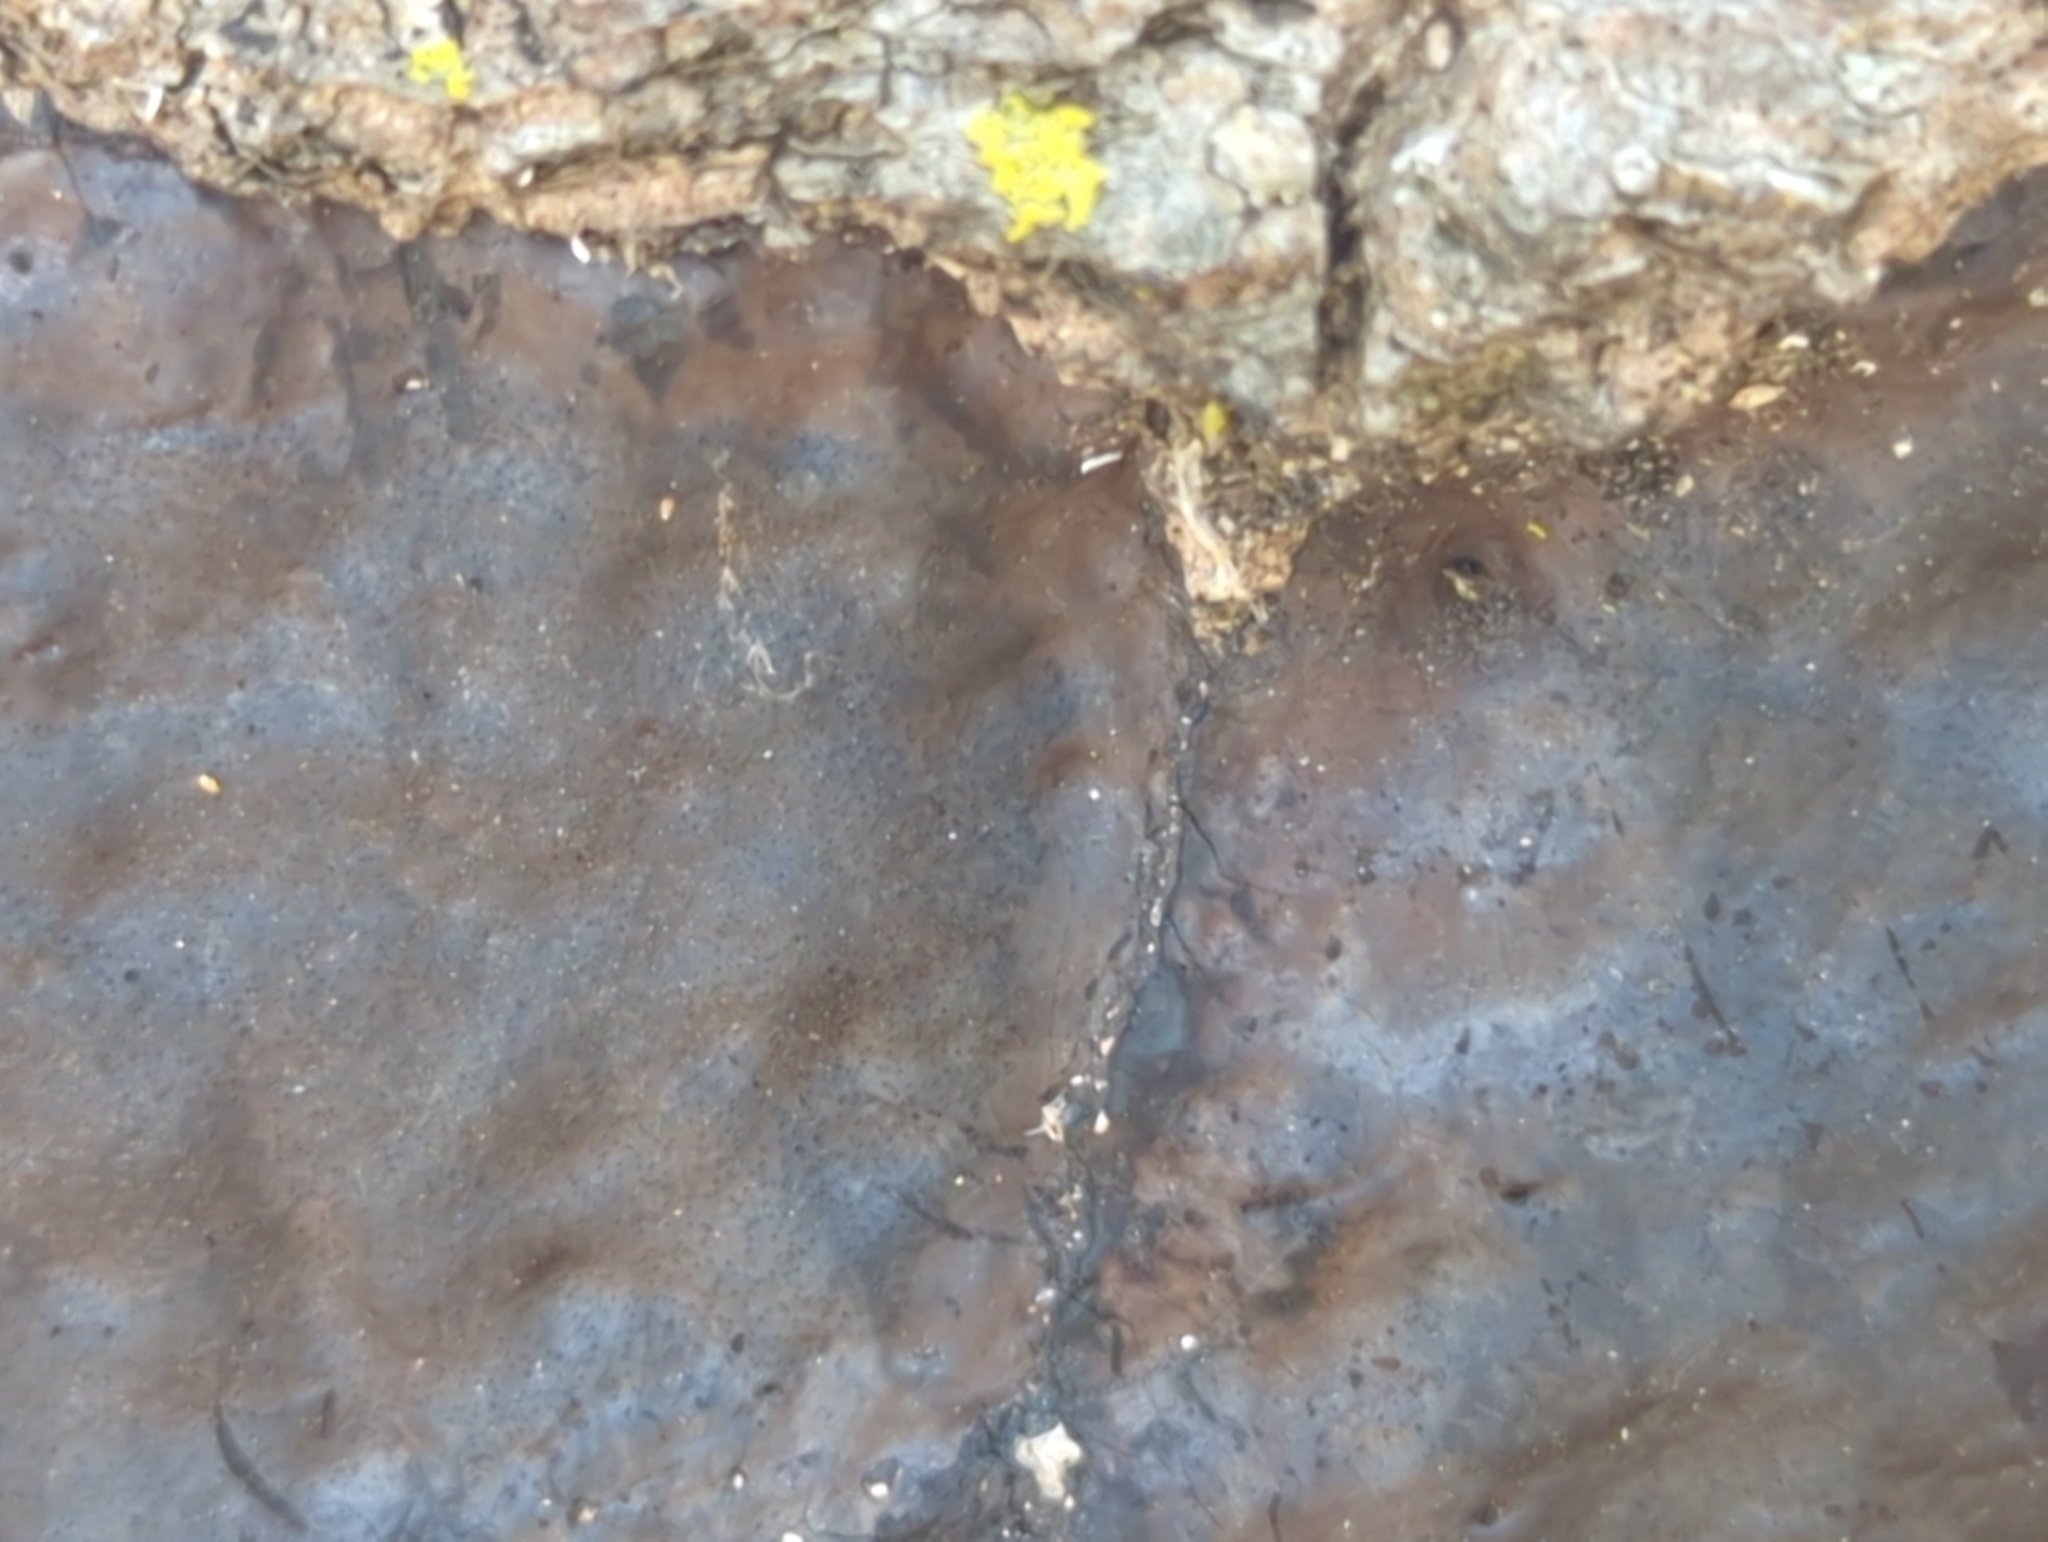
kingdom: Fungi
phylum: Ascomycota
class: Sordariomycetes
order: Xylariales
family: Graphostromataceae
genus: Camillea
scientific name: Camillea punctulata
